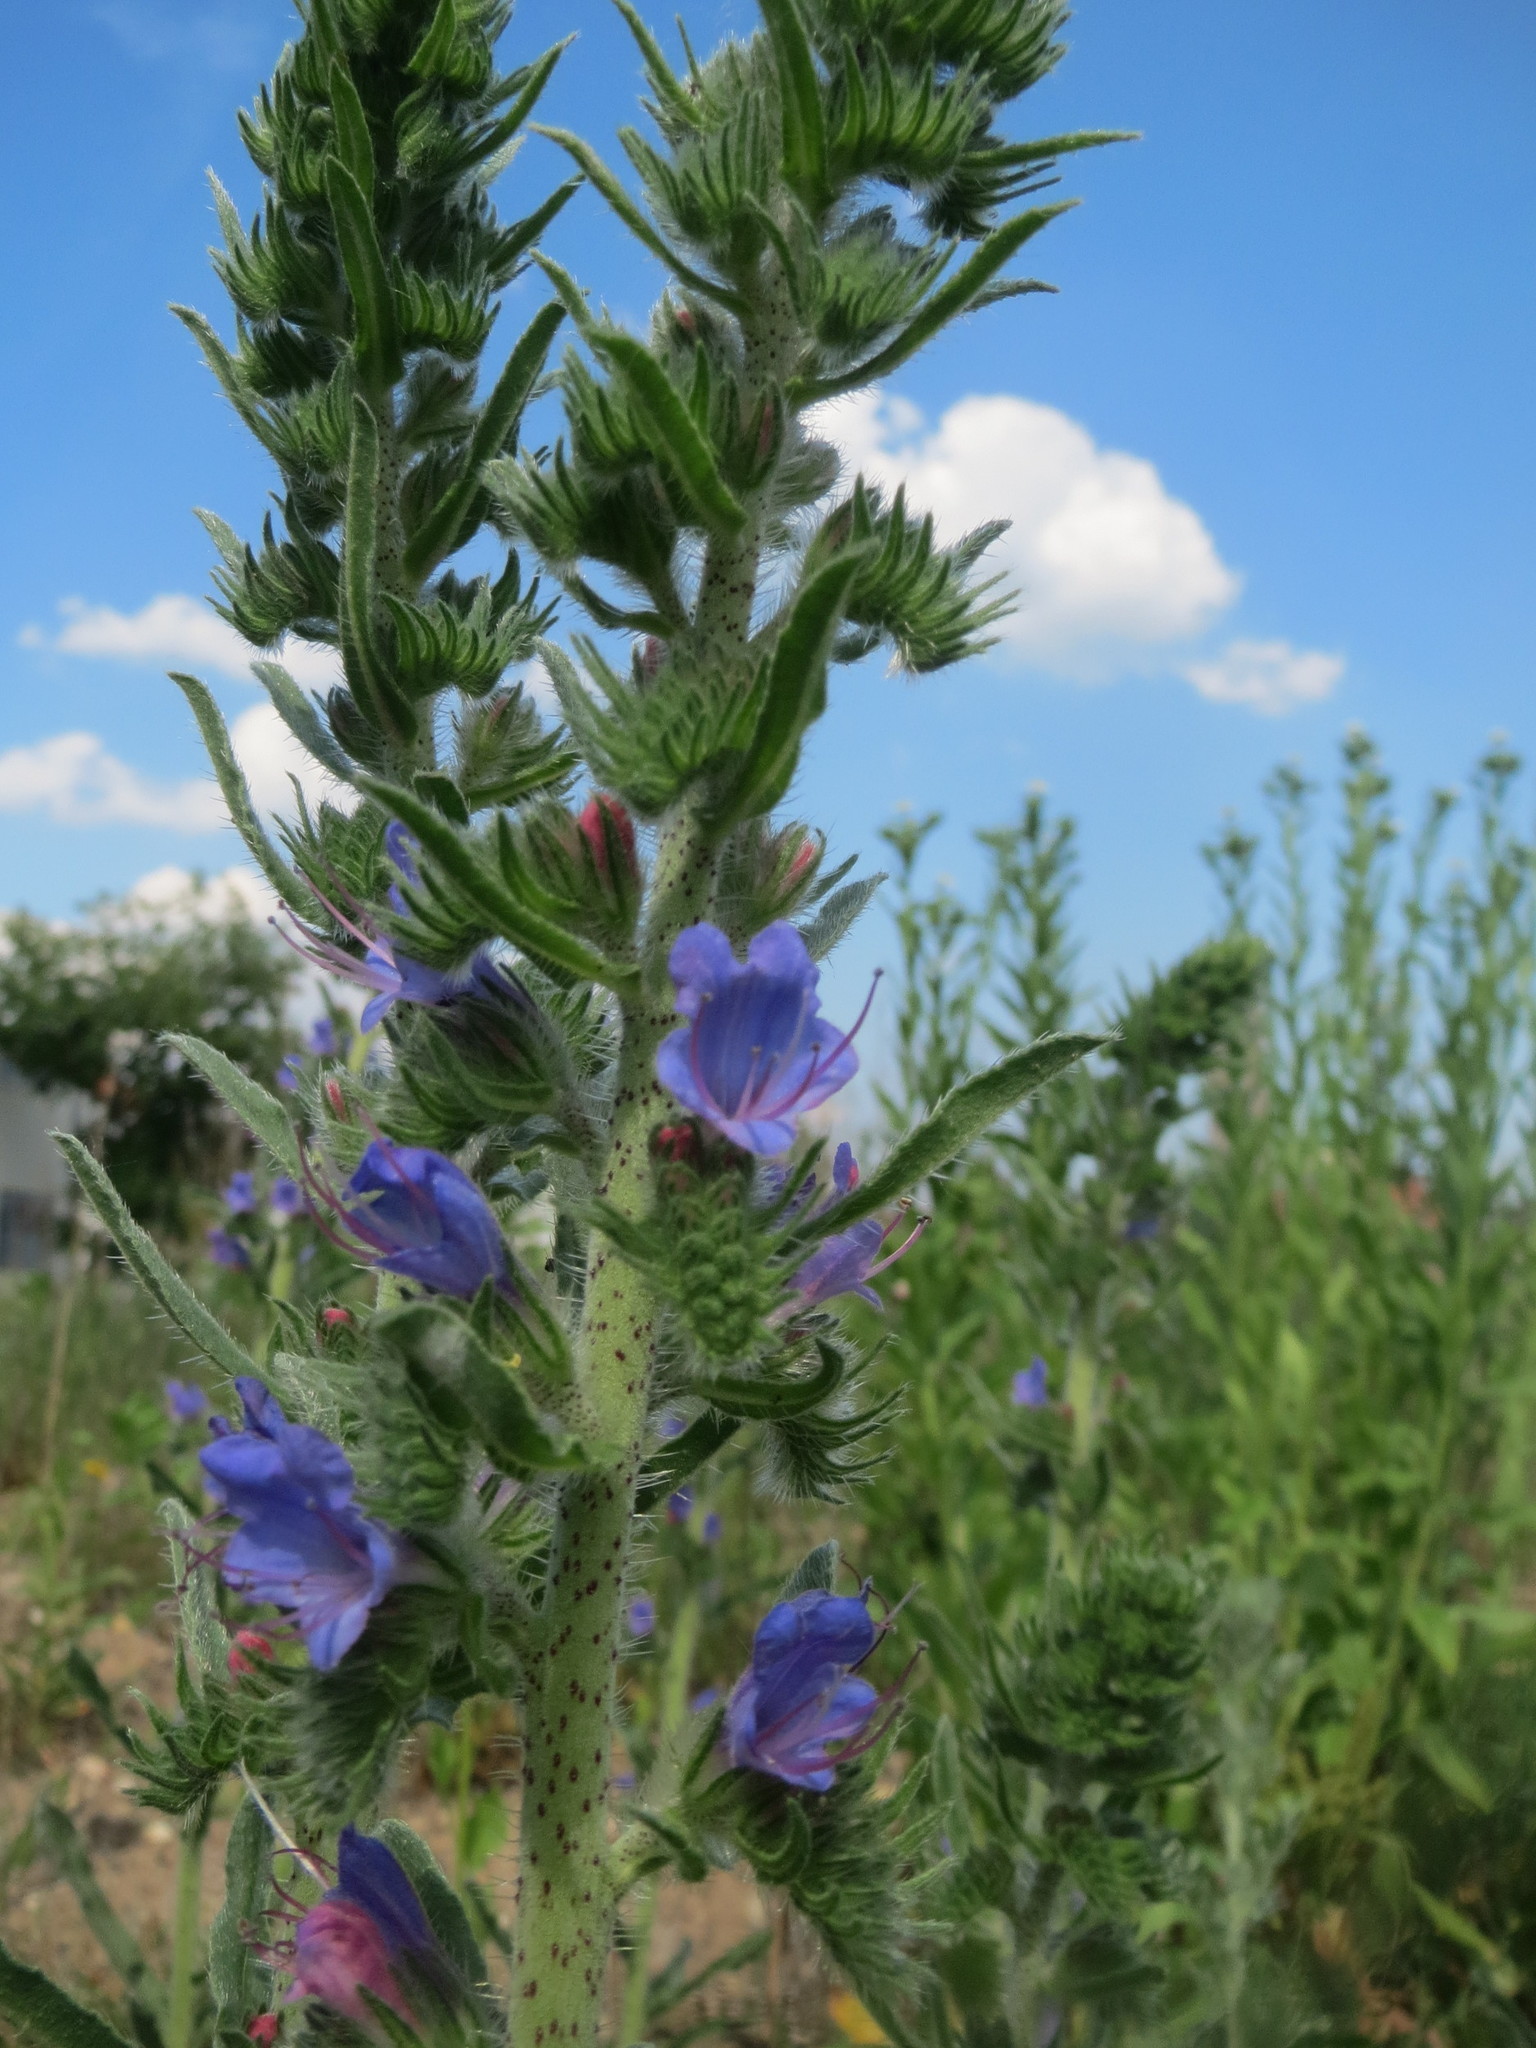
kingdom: Plantae
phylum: Tracheophyta
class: Magnoliopsida
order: Boraginales
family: Boraginaceae
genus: Echium
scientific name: Echium vulgare
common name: Common viper's bugloss
